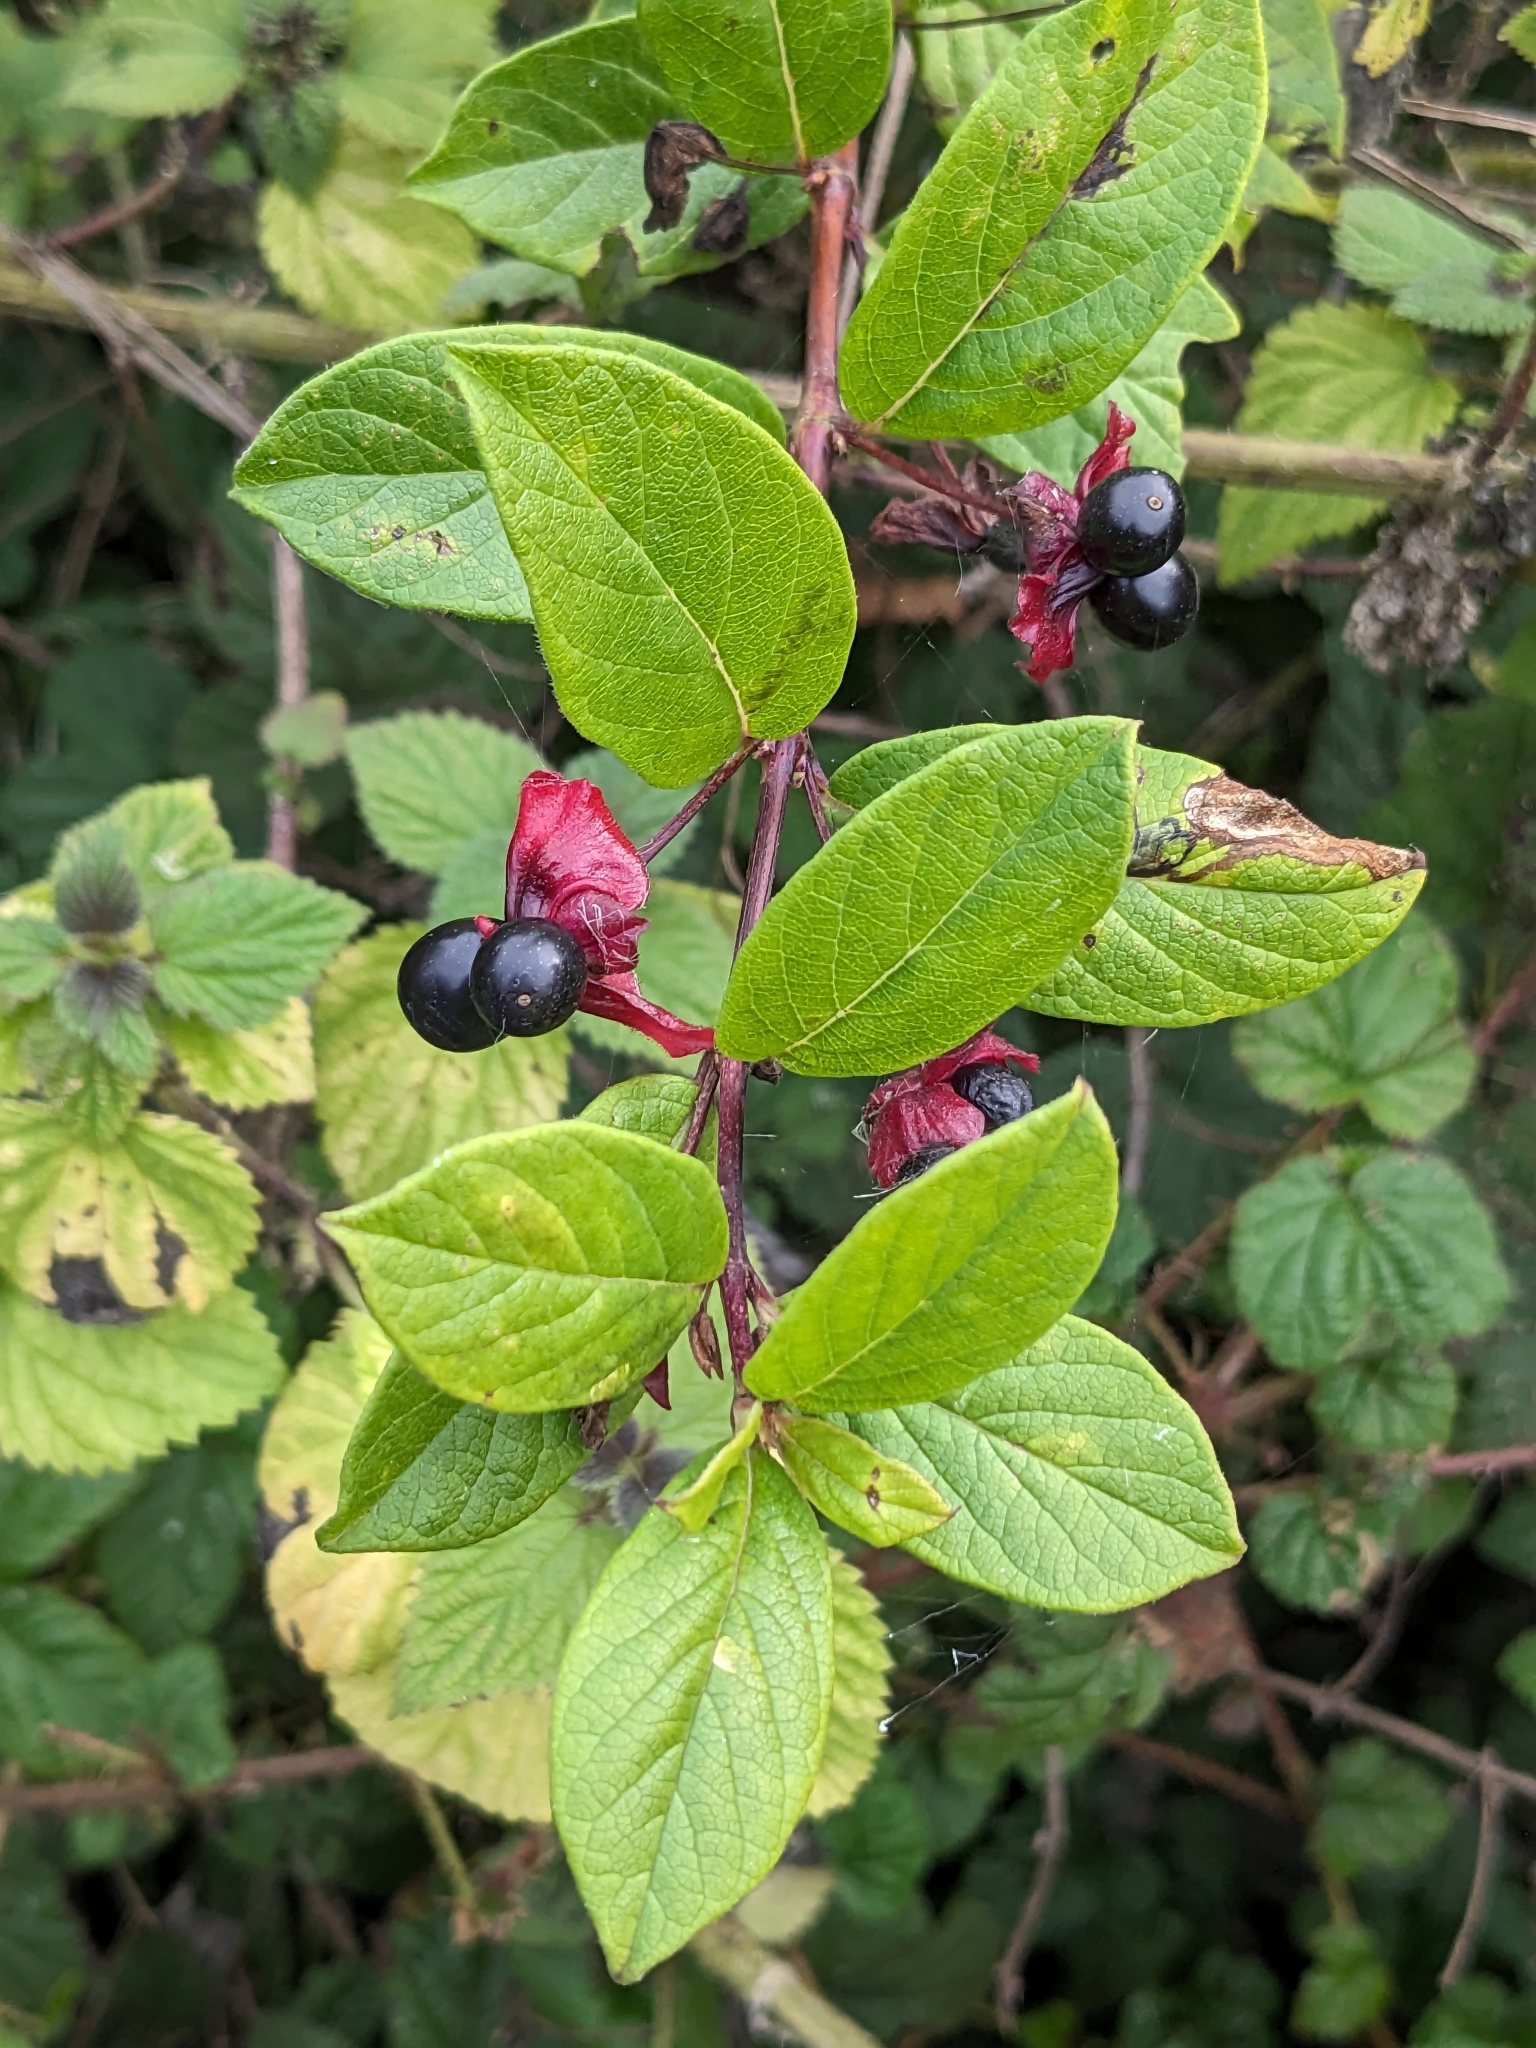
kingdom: Plantae
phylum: Tracheophyta
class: Magnoliopsida
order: Dipsacales
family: Caprifoliaceae
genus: Lonicera
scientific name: Lonicera involucrata
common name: Californian honeysuckle
